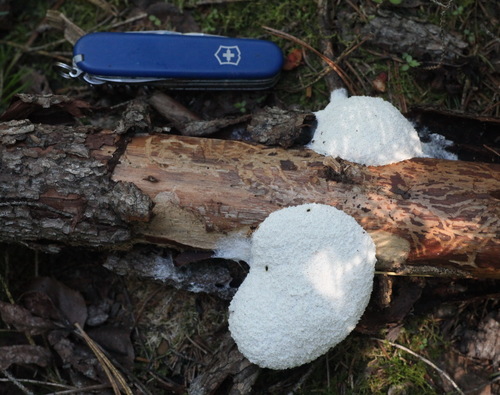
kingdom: Protozoa
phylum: Mycetozoa
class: Myxomycetes
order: Physarales
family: Physaraceae
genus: Fuligo
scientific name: Fuligo septica
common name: Dog vomit slime mold
